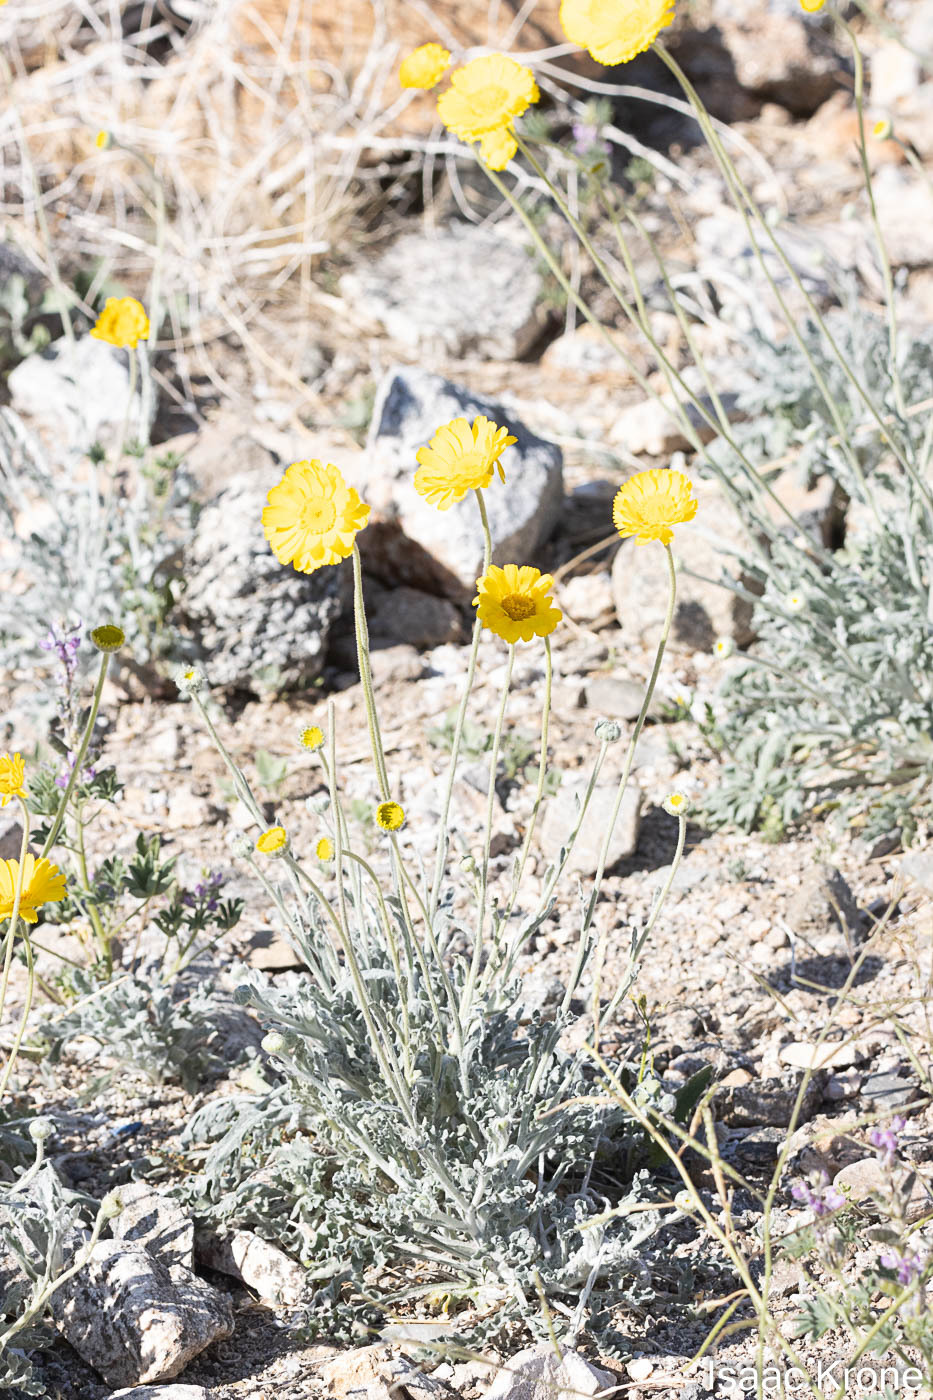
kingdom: Plantae
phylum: Tracheophyta
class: Magnoliopsida
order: Asterales
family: Asteraceae
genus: Baileya
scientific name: Baileya multiradiata
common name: Desert-marigold
